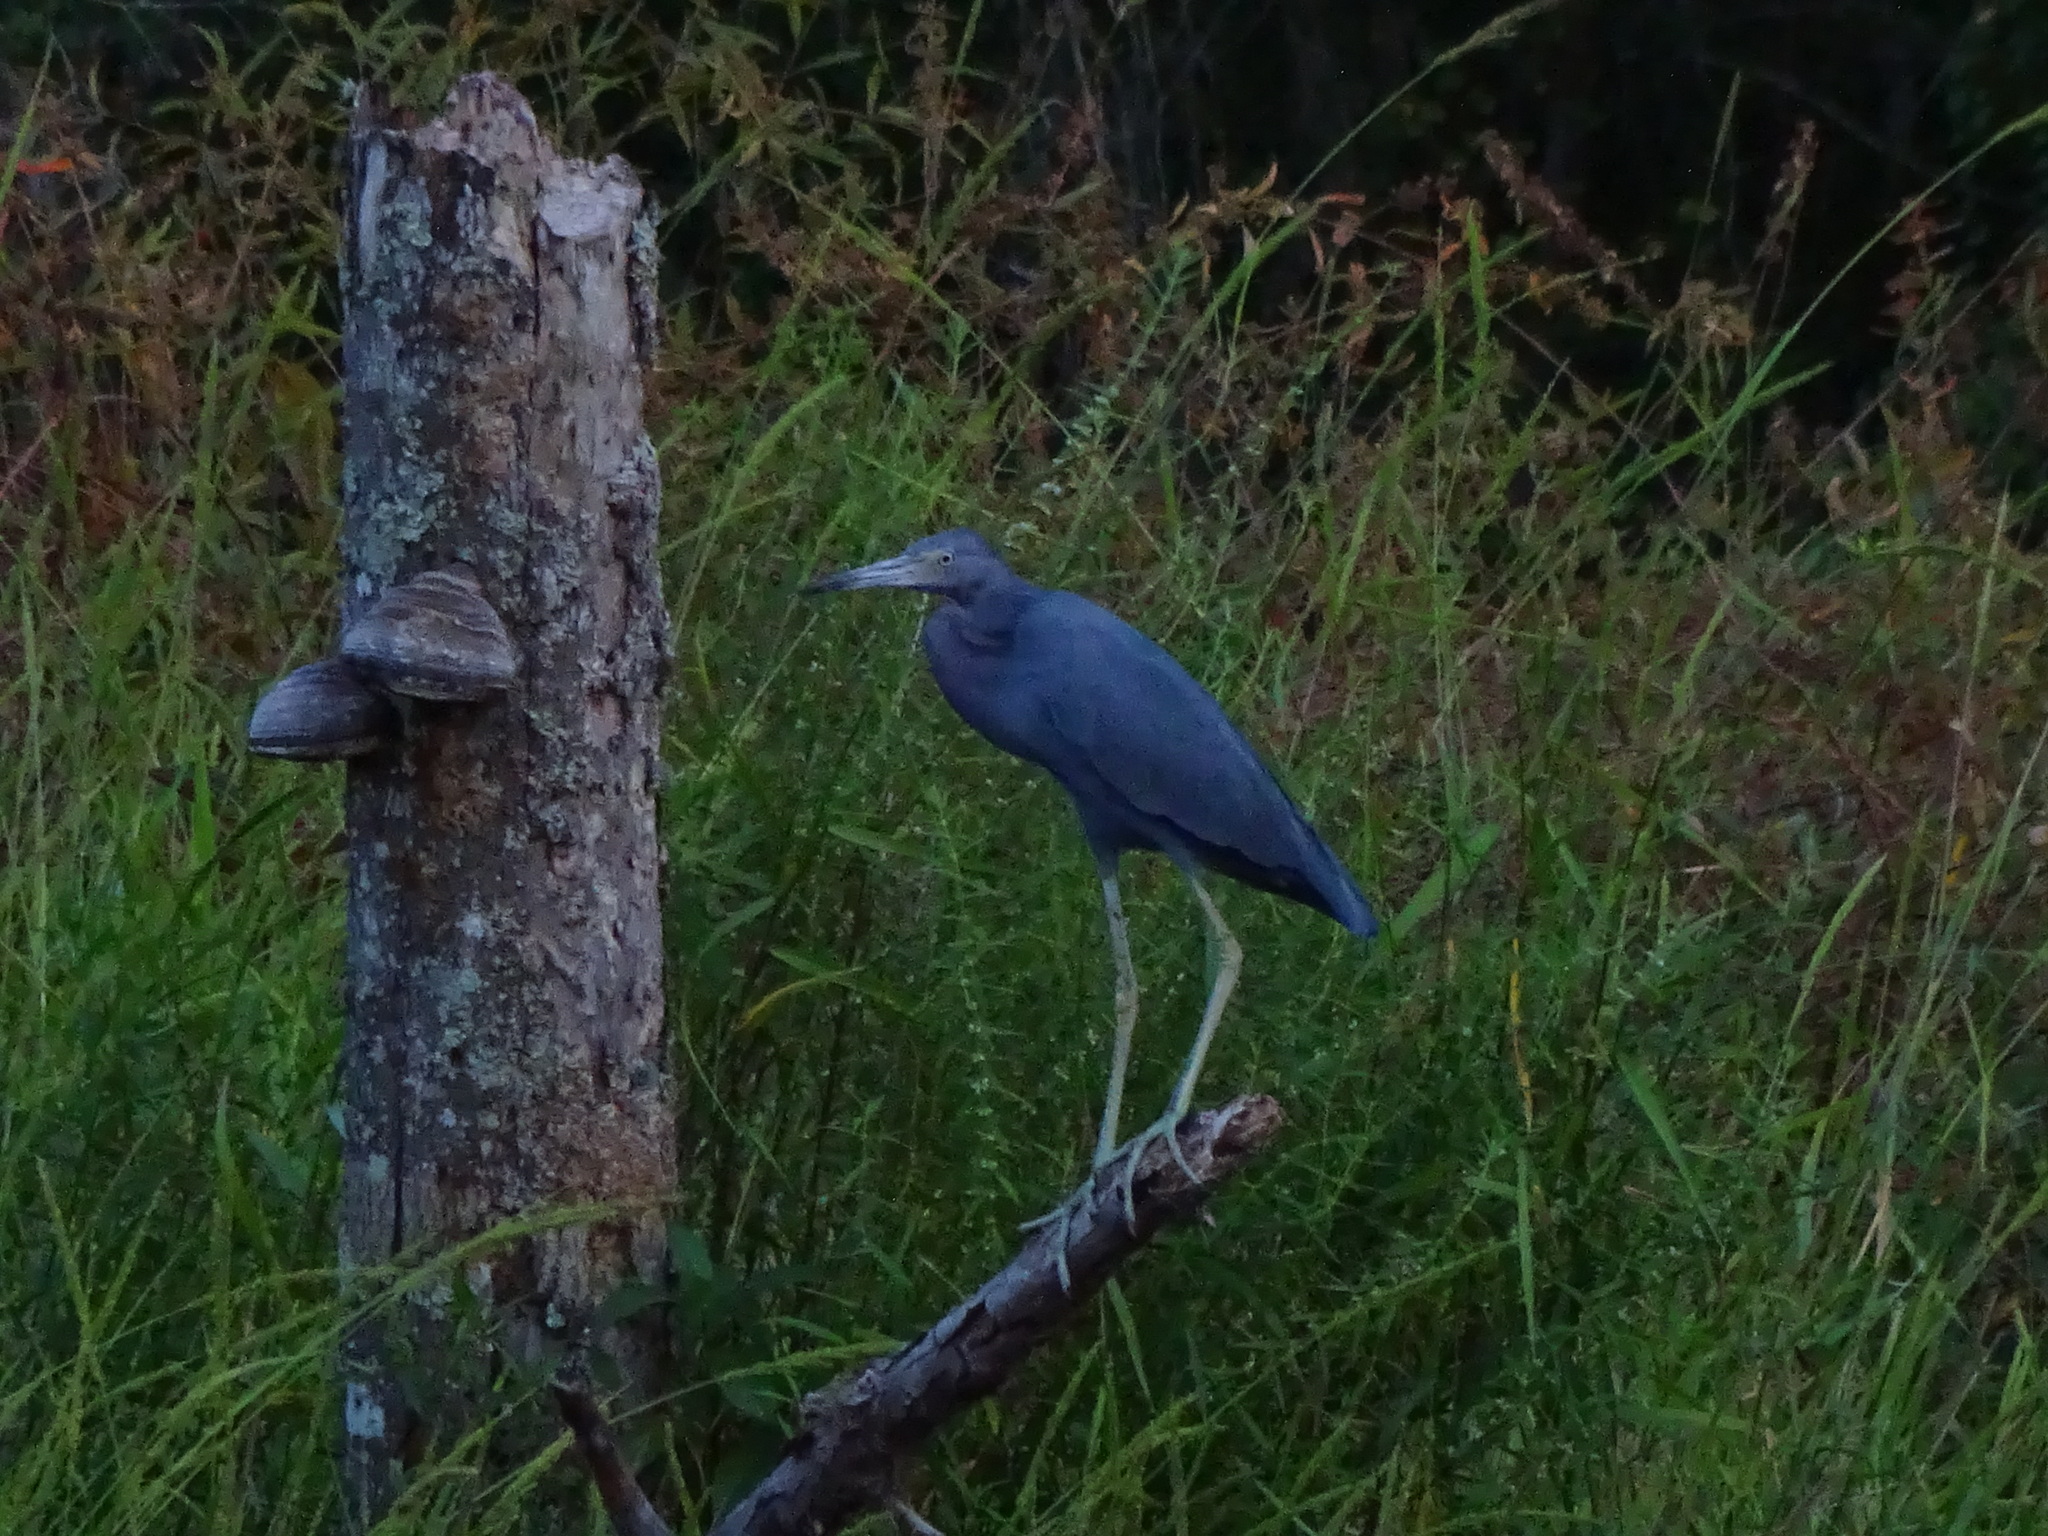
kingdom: Animalia
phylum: Chordata
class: Aves
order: Pelecaniformes
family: Ardeidae
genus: Egretta
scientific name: Egretta caerulea
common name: Little blue heron
